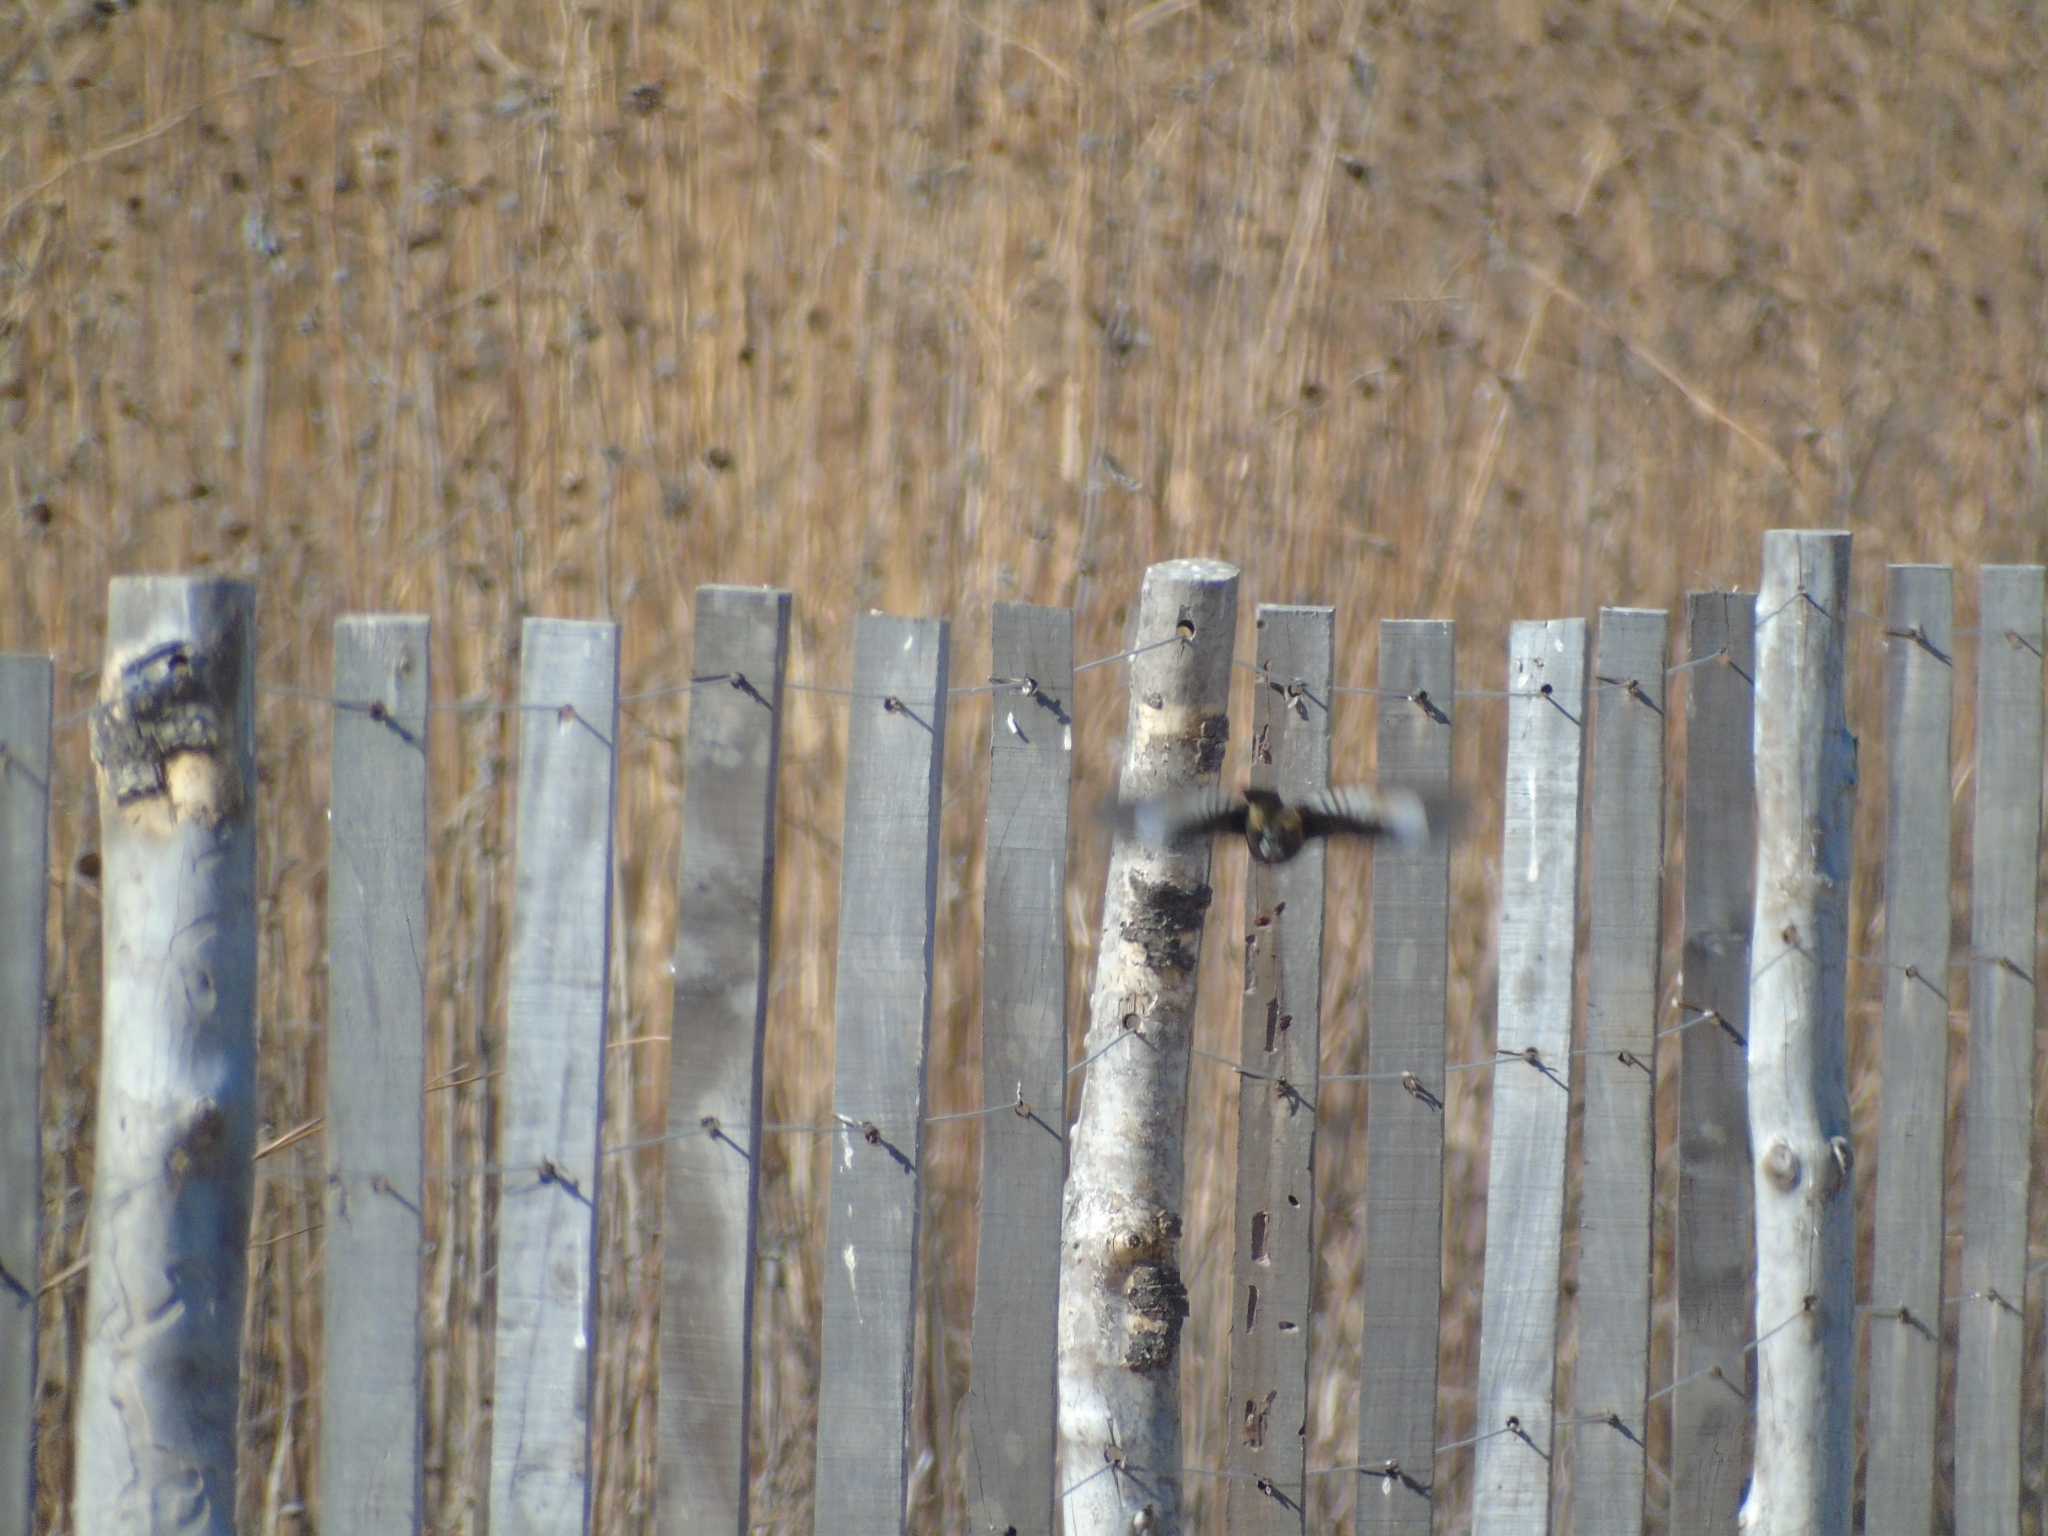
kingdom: Animalia
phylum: Chordata
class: Aves
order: Passeriformes
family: Tyrannidae
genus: Knipolegus
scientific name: Knipolegus aterrimus
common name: White-winged black tyrant
